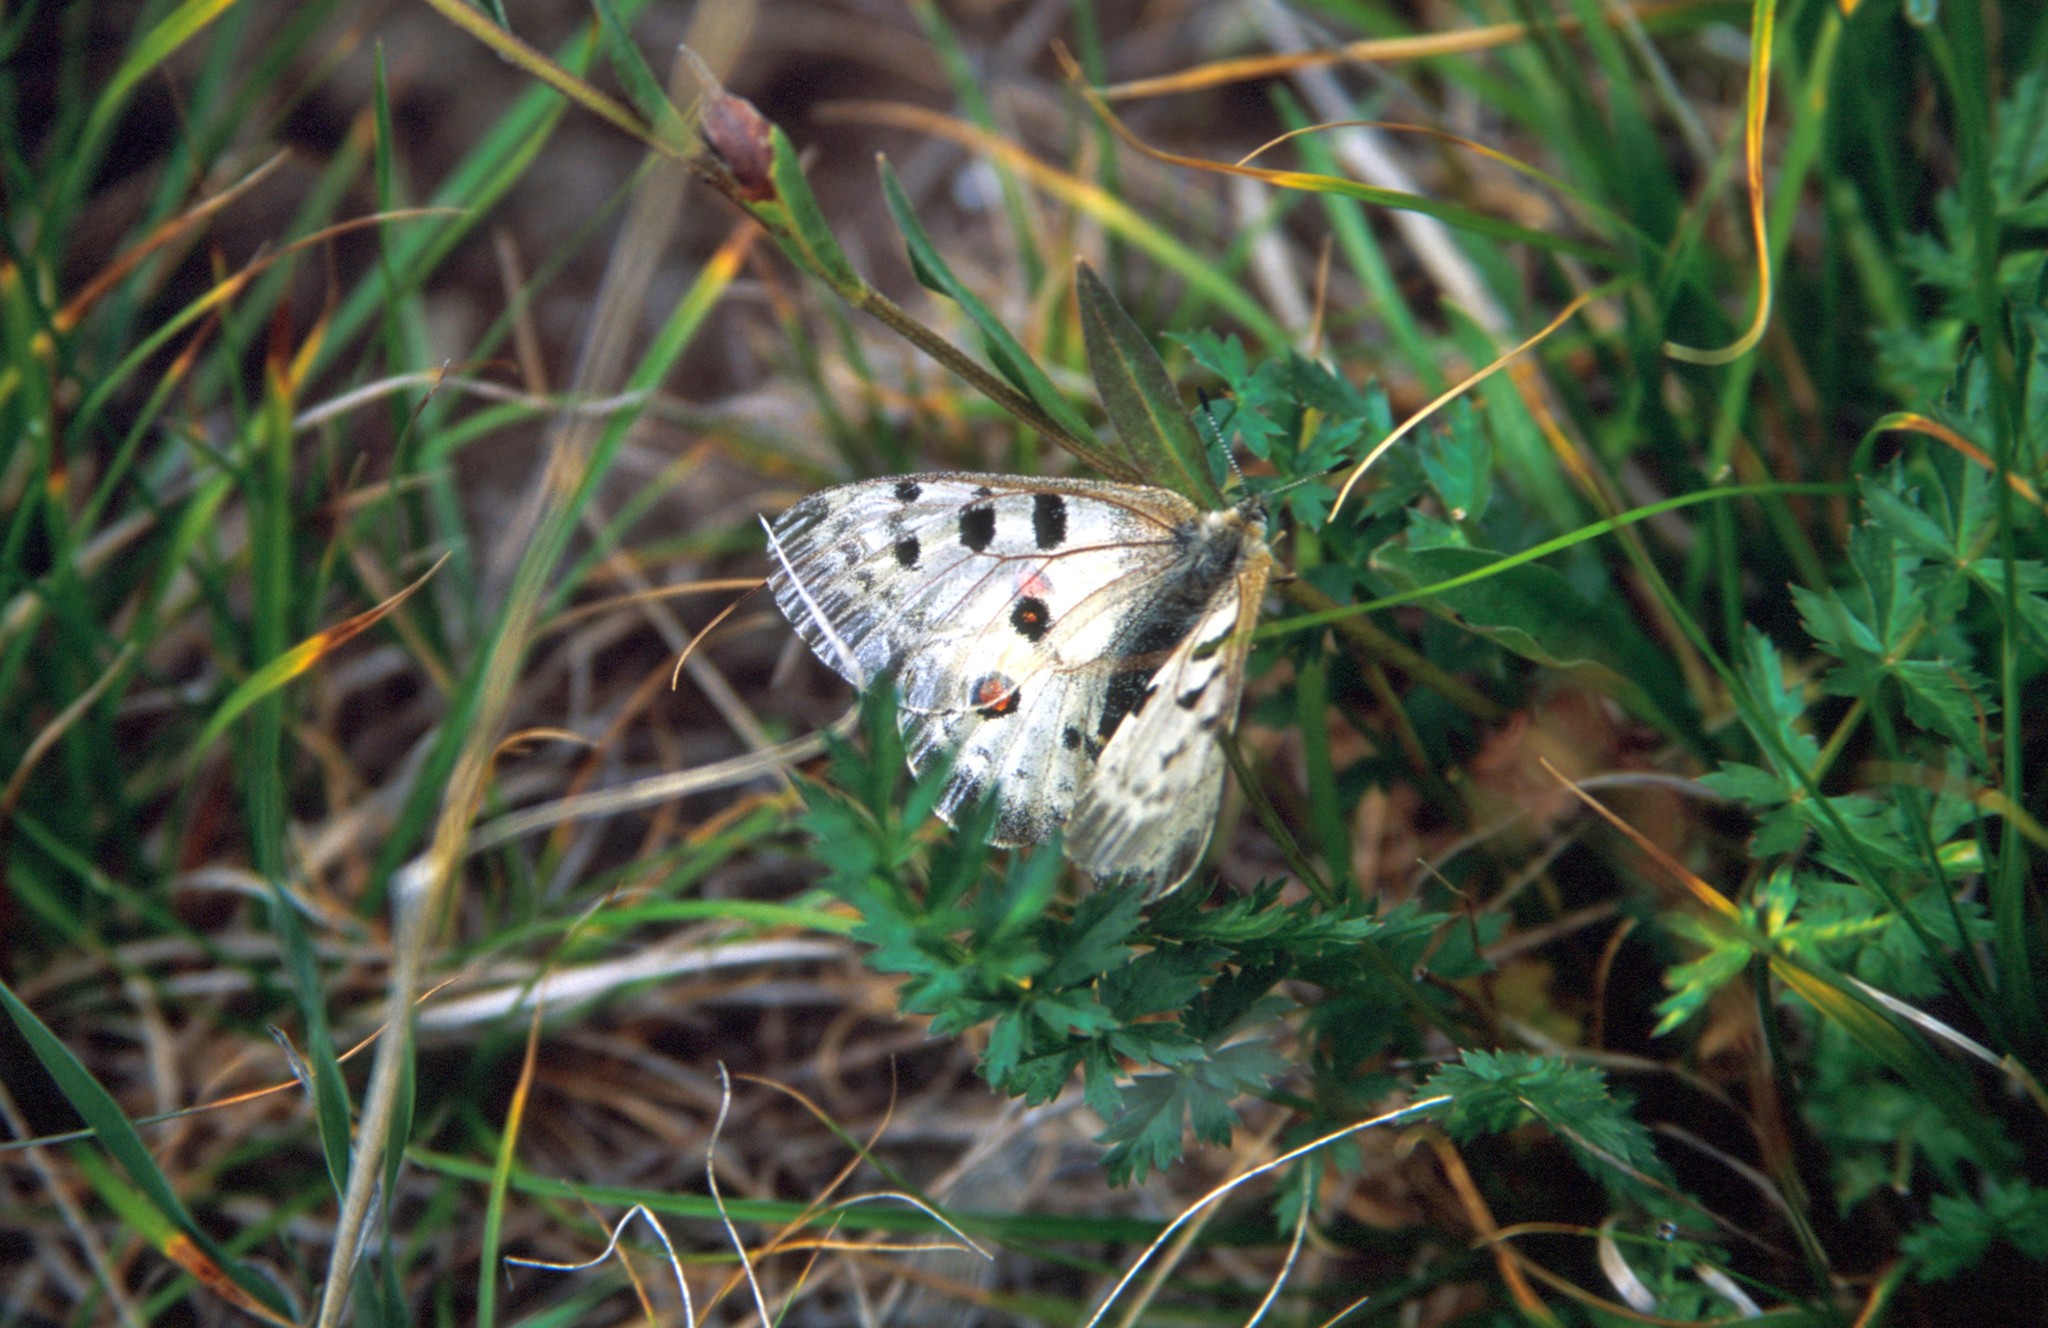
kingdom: Animalia
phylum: Arthropoda
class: Insecta
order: Lepidoptera
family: Papilionidae
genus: Parnassius
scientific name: Parnassius tianschanicus
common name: Large keeled apollo
